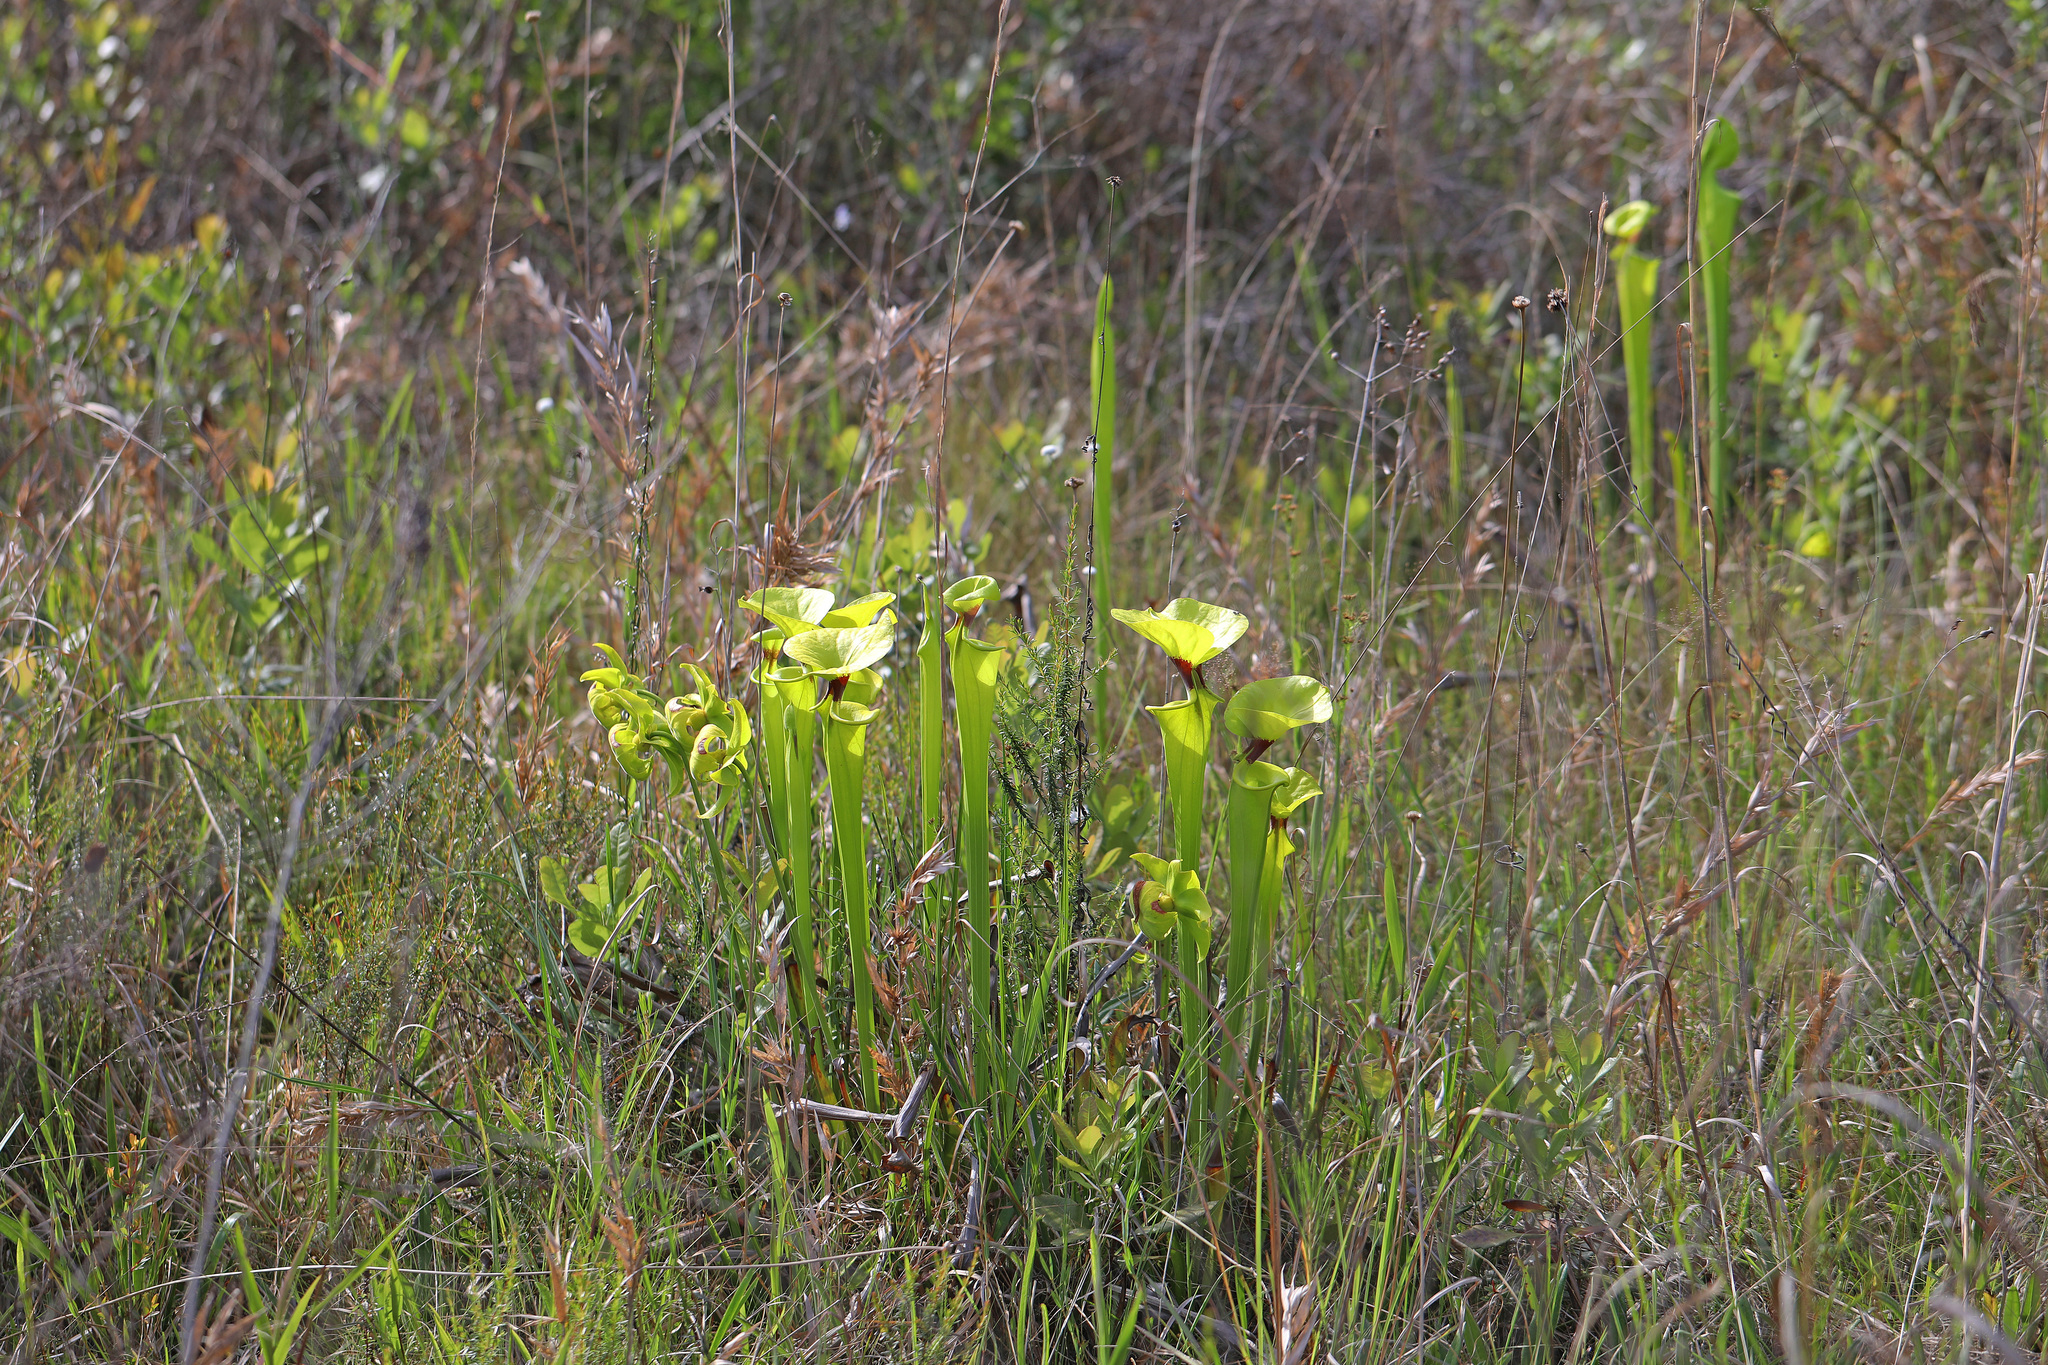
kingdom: Plantae
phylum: Tracheophyta
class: Magnoliopsida
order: Ericales
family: Sarraceniaceae
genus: Sarracenia
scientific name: Sarracenia flava
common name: Trumpets
